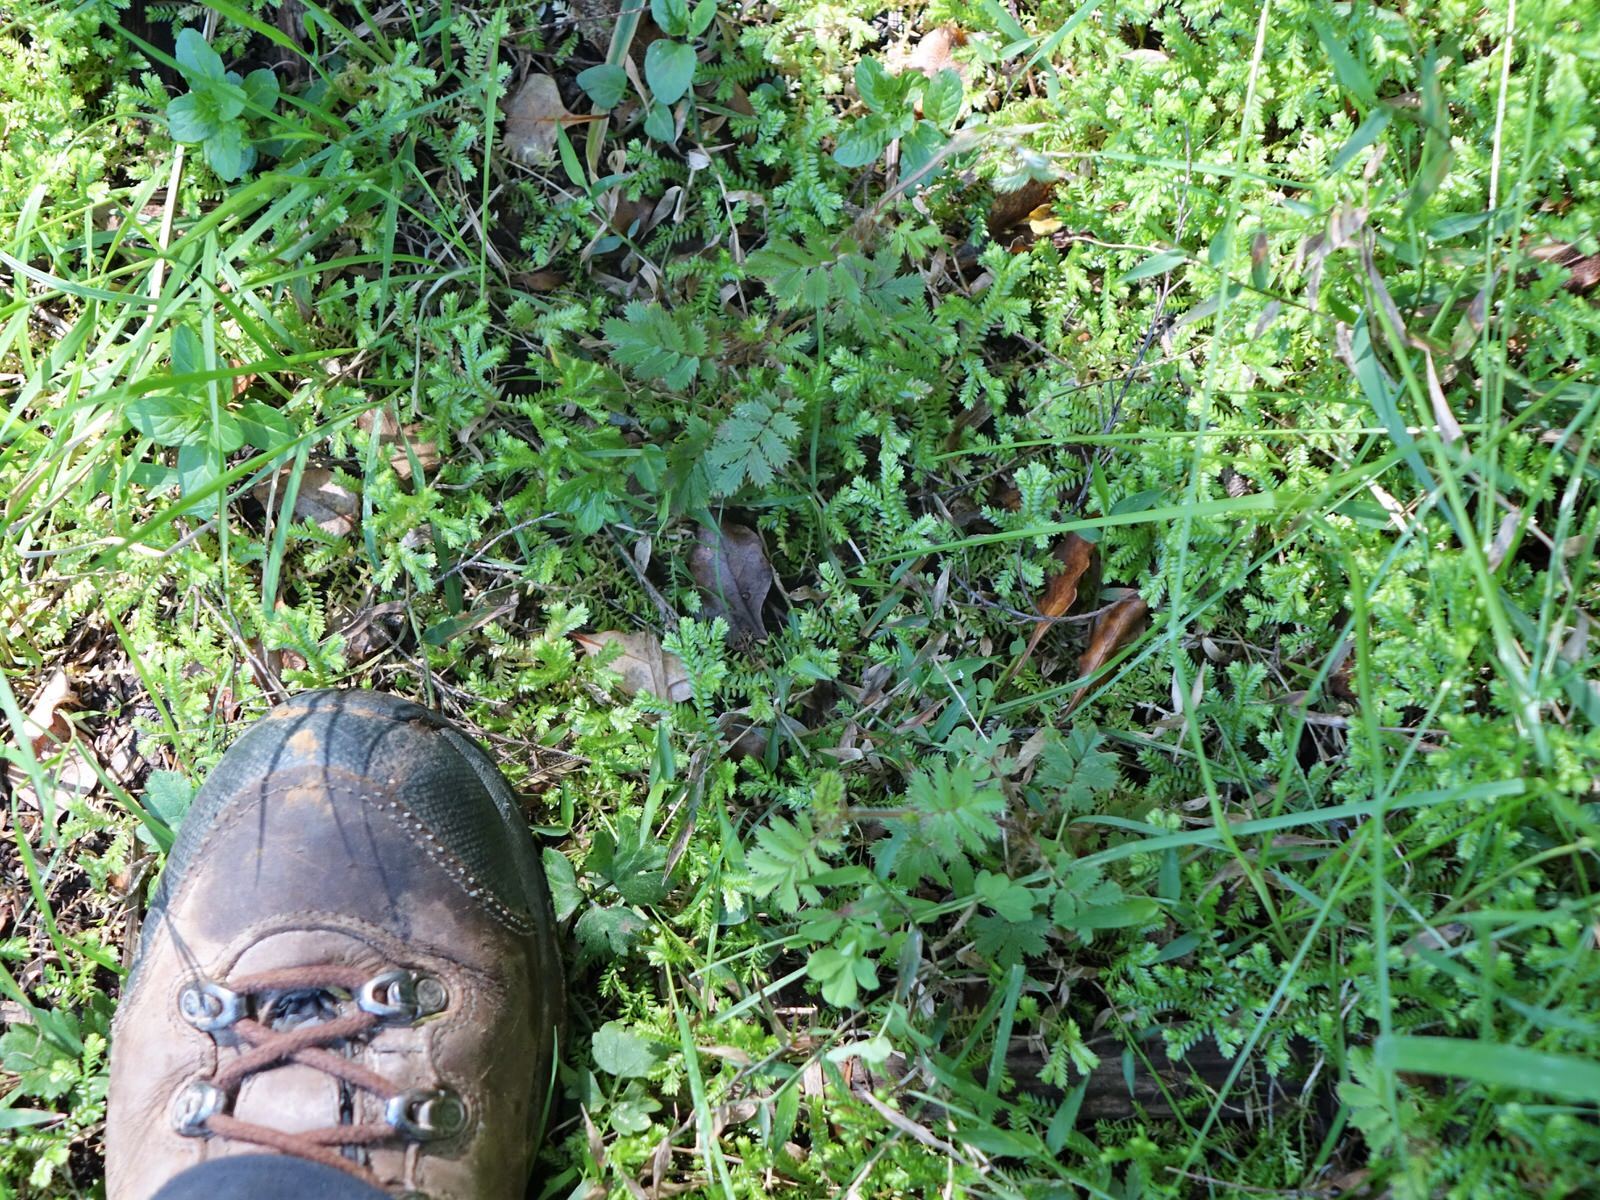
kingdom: Plantae
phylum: Tracheophyta
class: Magnoliopsida
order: Rosales
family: Rosaceae
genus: Acaena
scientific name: Acaena anserinifolia
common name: Bronze pirri-pirri-bur
